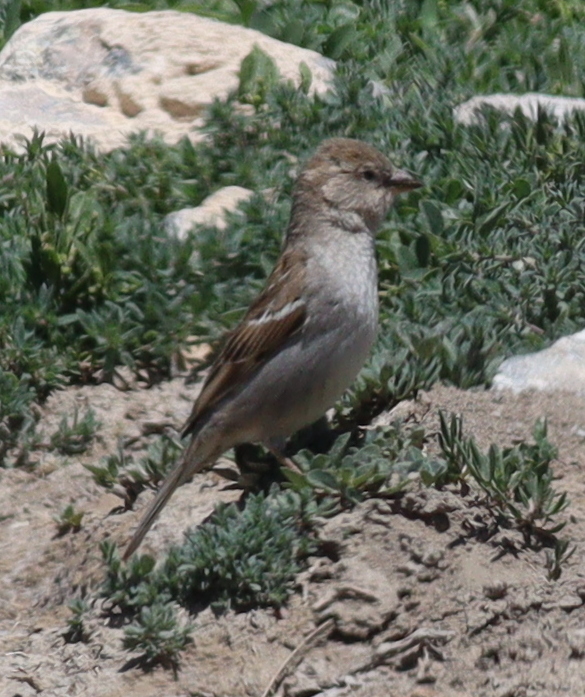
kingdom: Animalia
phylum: Chordata
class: Aves
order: Passeriformes
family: Passeridae
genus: Passer
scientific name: Passer domesticus
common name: House sparrow
